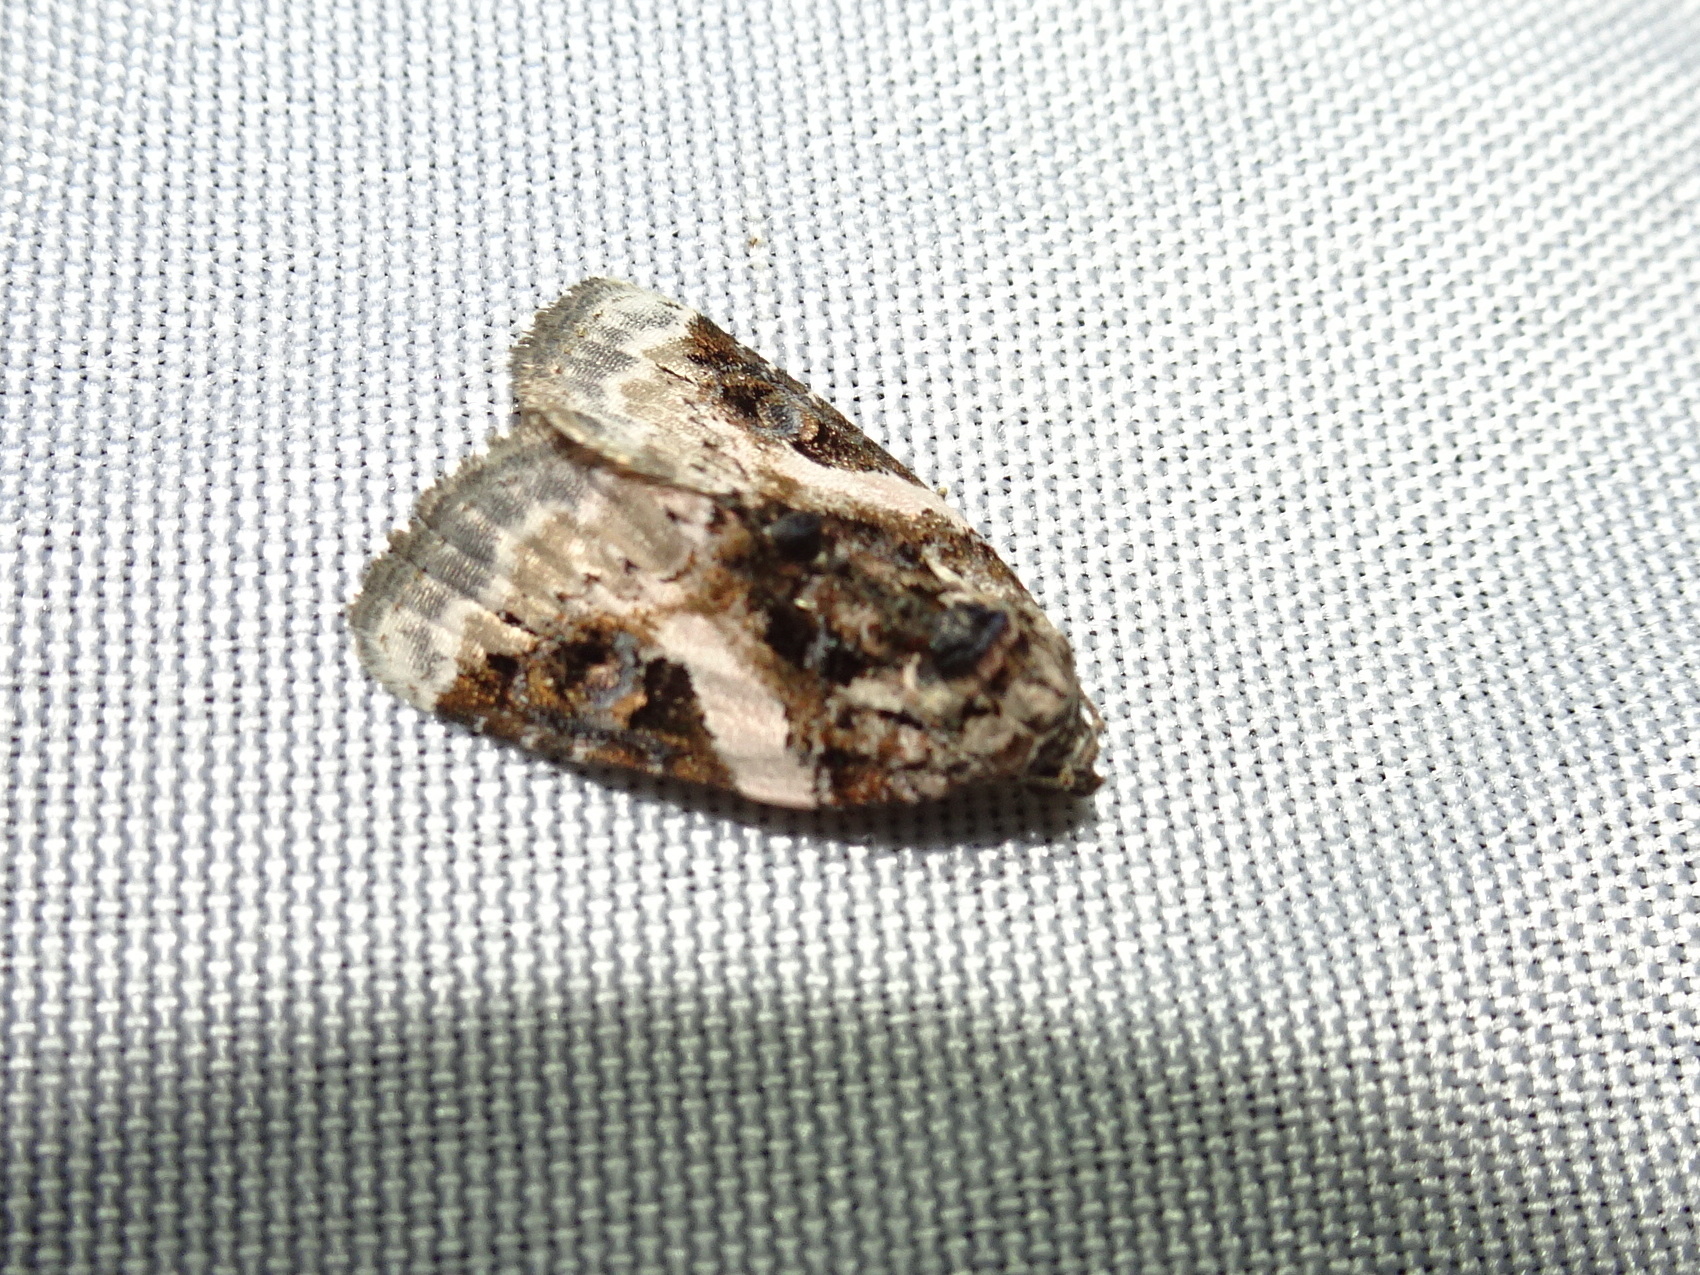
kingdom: Animalia
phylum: Arthropoda
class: Insecta
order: Lepidoptera
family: Noctuidae
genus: Pseudeustrotia
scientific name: Pseudeustrotia carneola
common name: Pink-barred lithacodia moth
